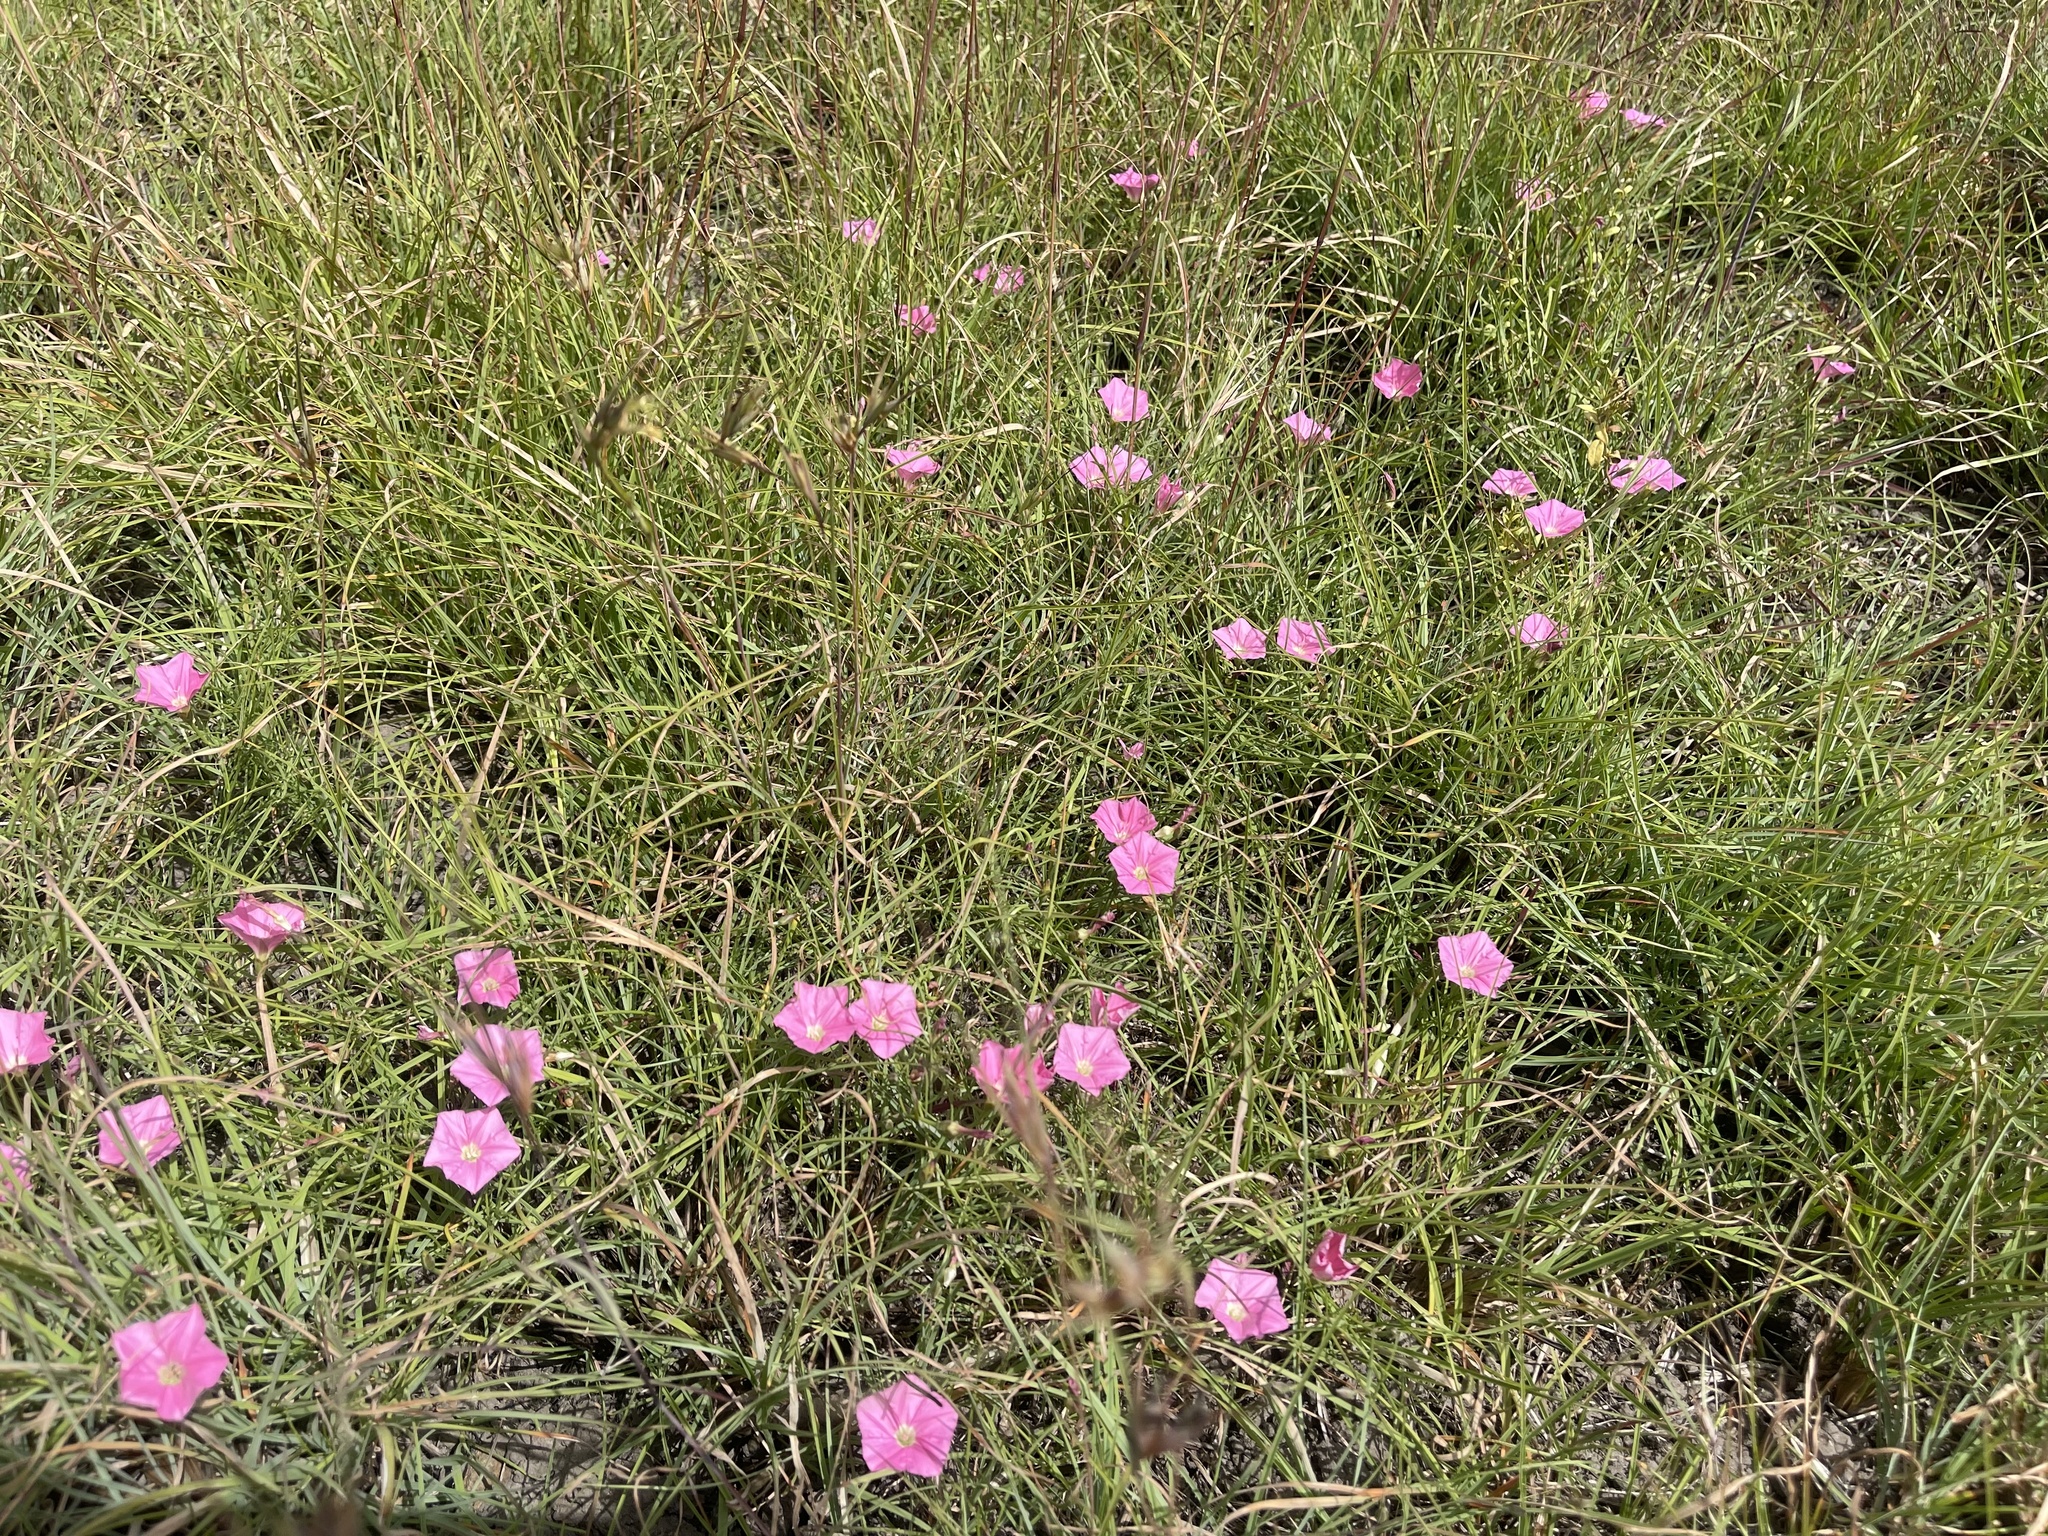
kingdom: Plantae
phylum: Tracheophyta
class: Magnoliopsida
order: Solanales
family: Convolvulaceae
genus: Convolvulus
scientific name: Convolvulus angustissimus
